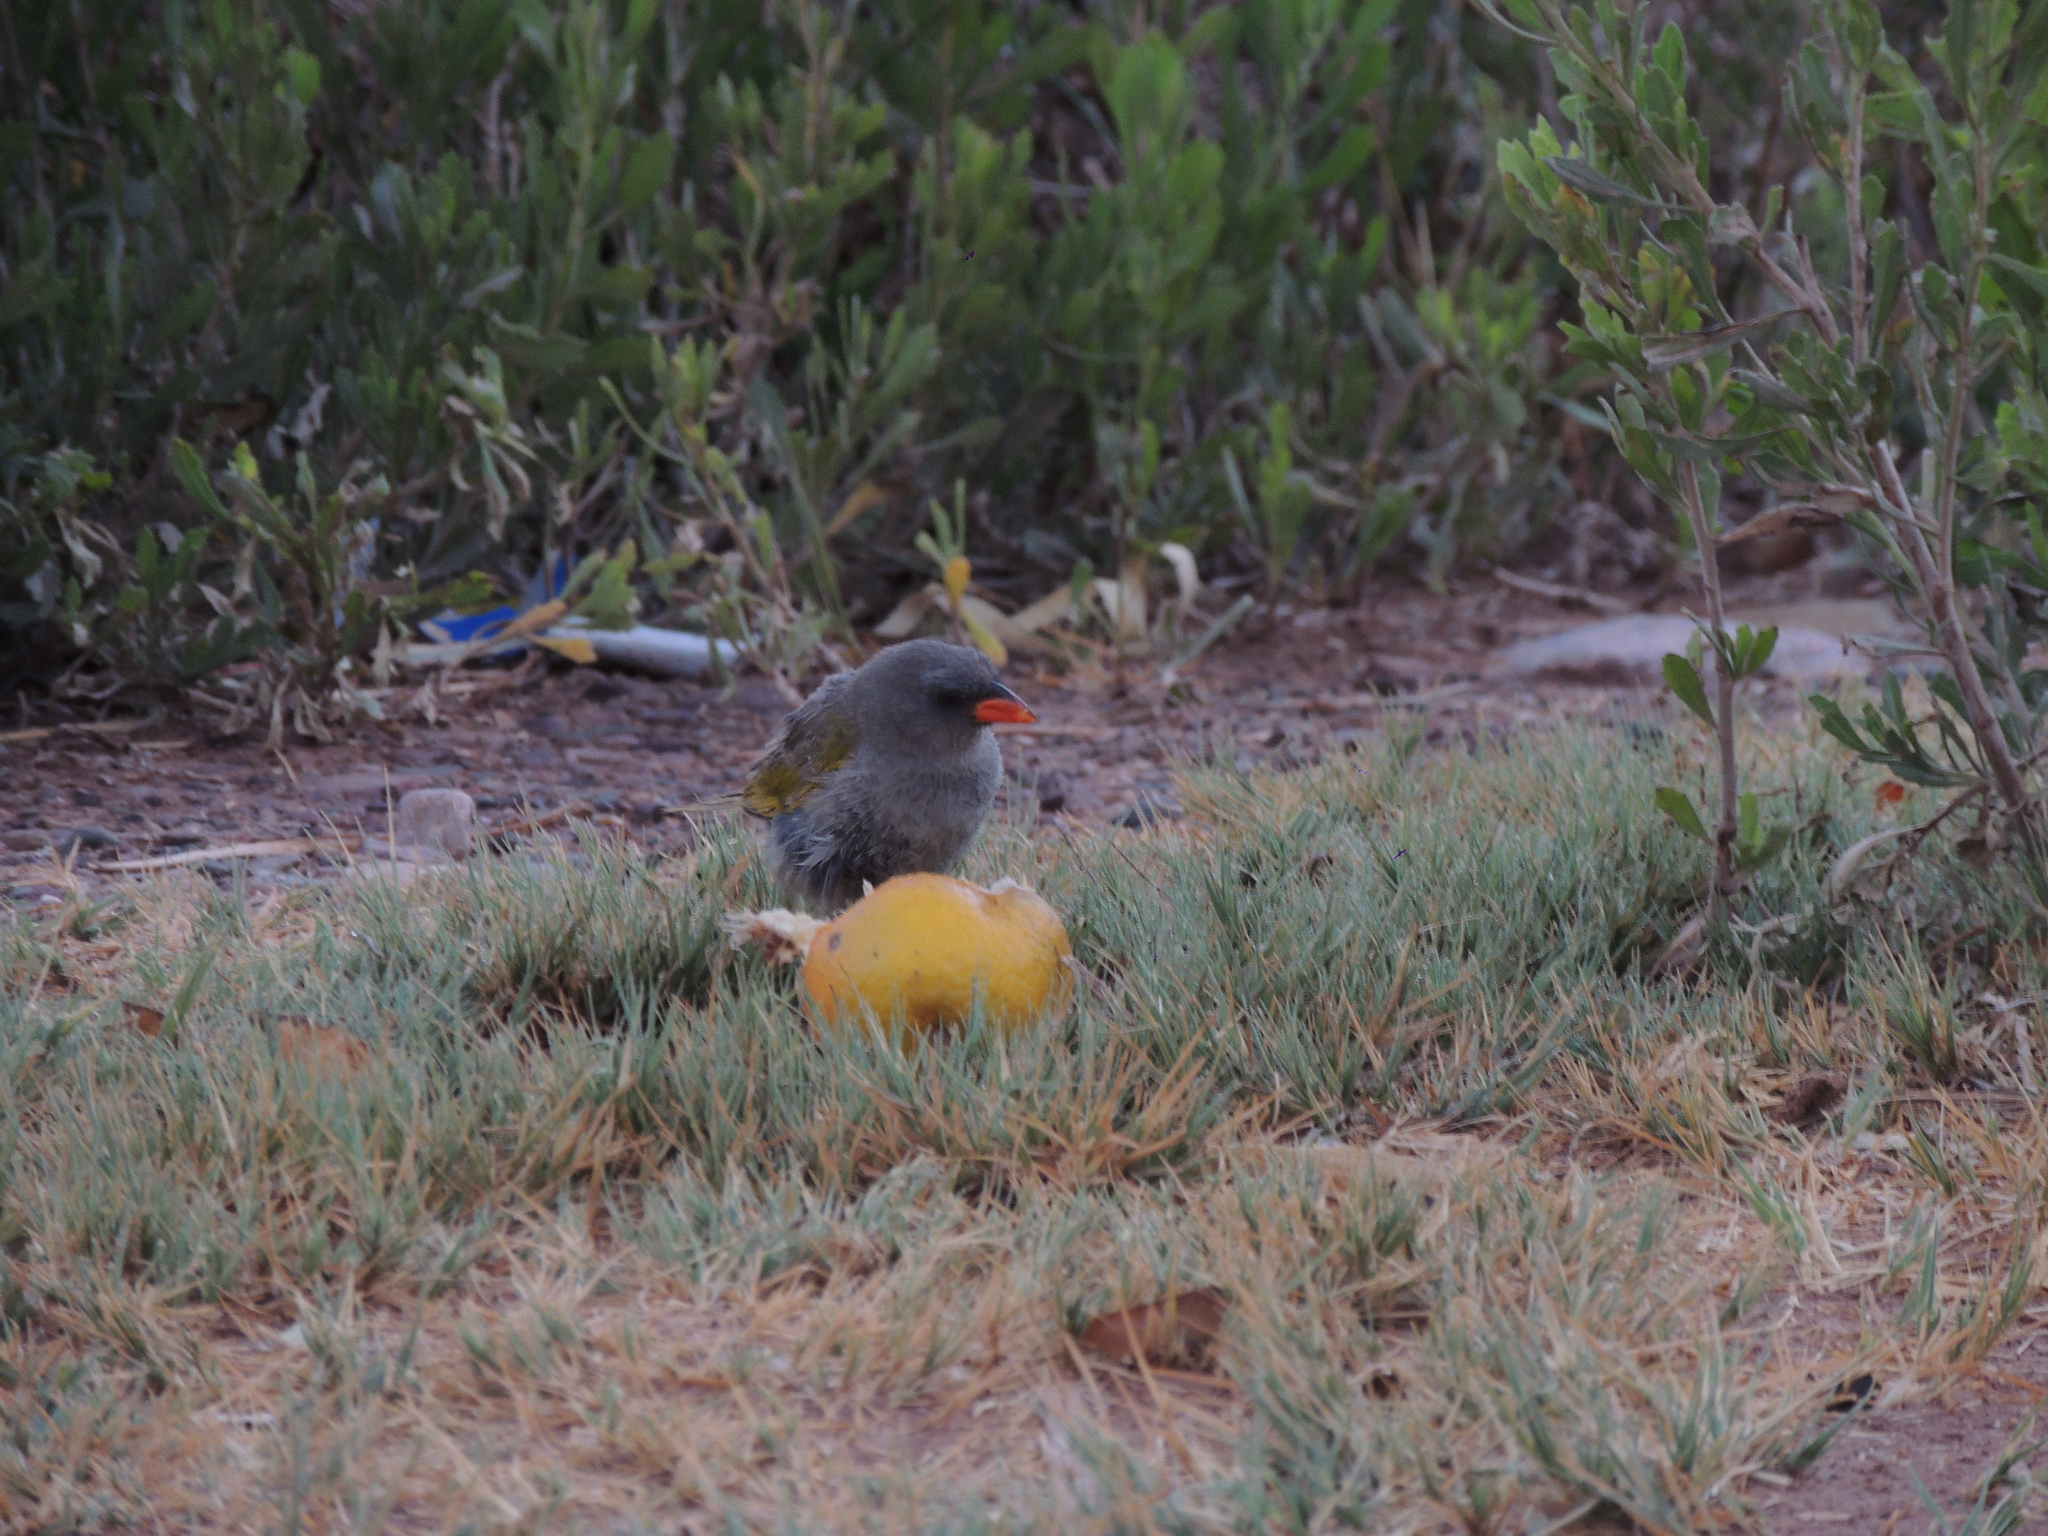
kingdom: Animalia
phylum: Chordata
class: Aves
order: Passeriformes
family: Thraupidae
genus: Embernagra
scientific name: Embernagra platensis
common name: Pampa finch
